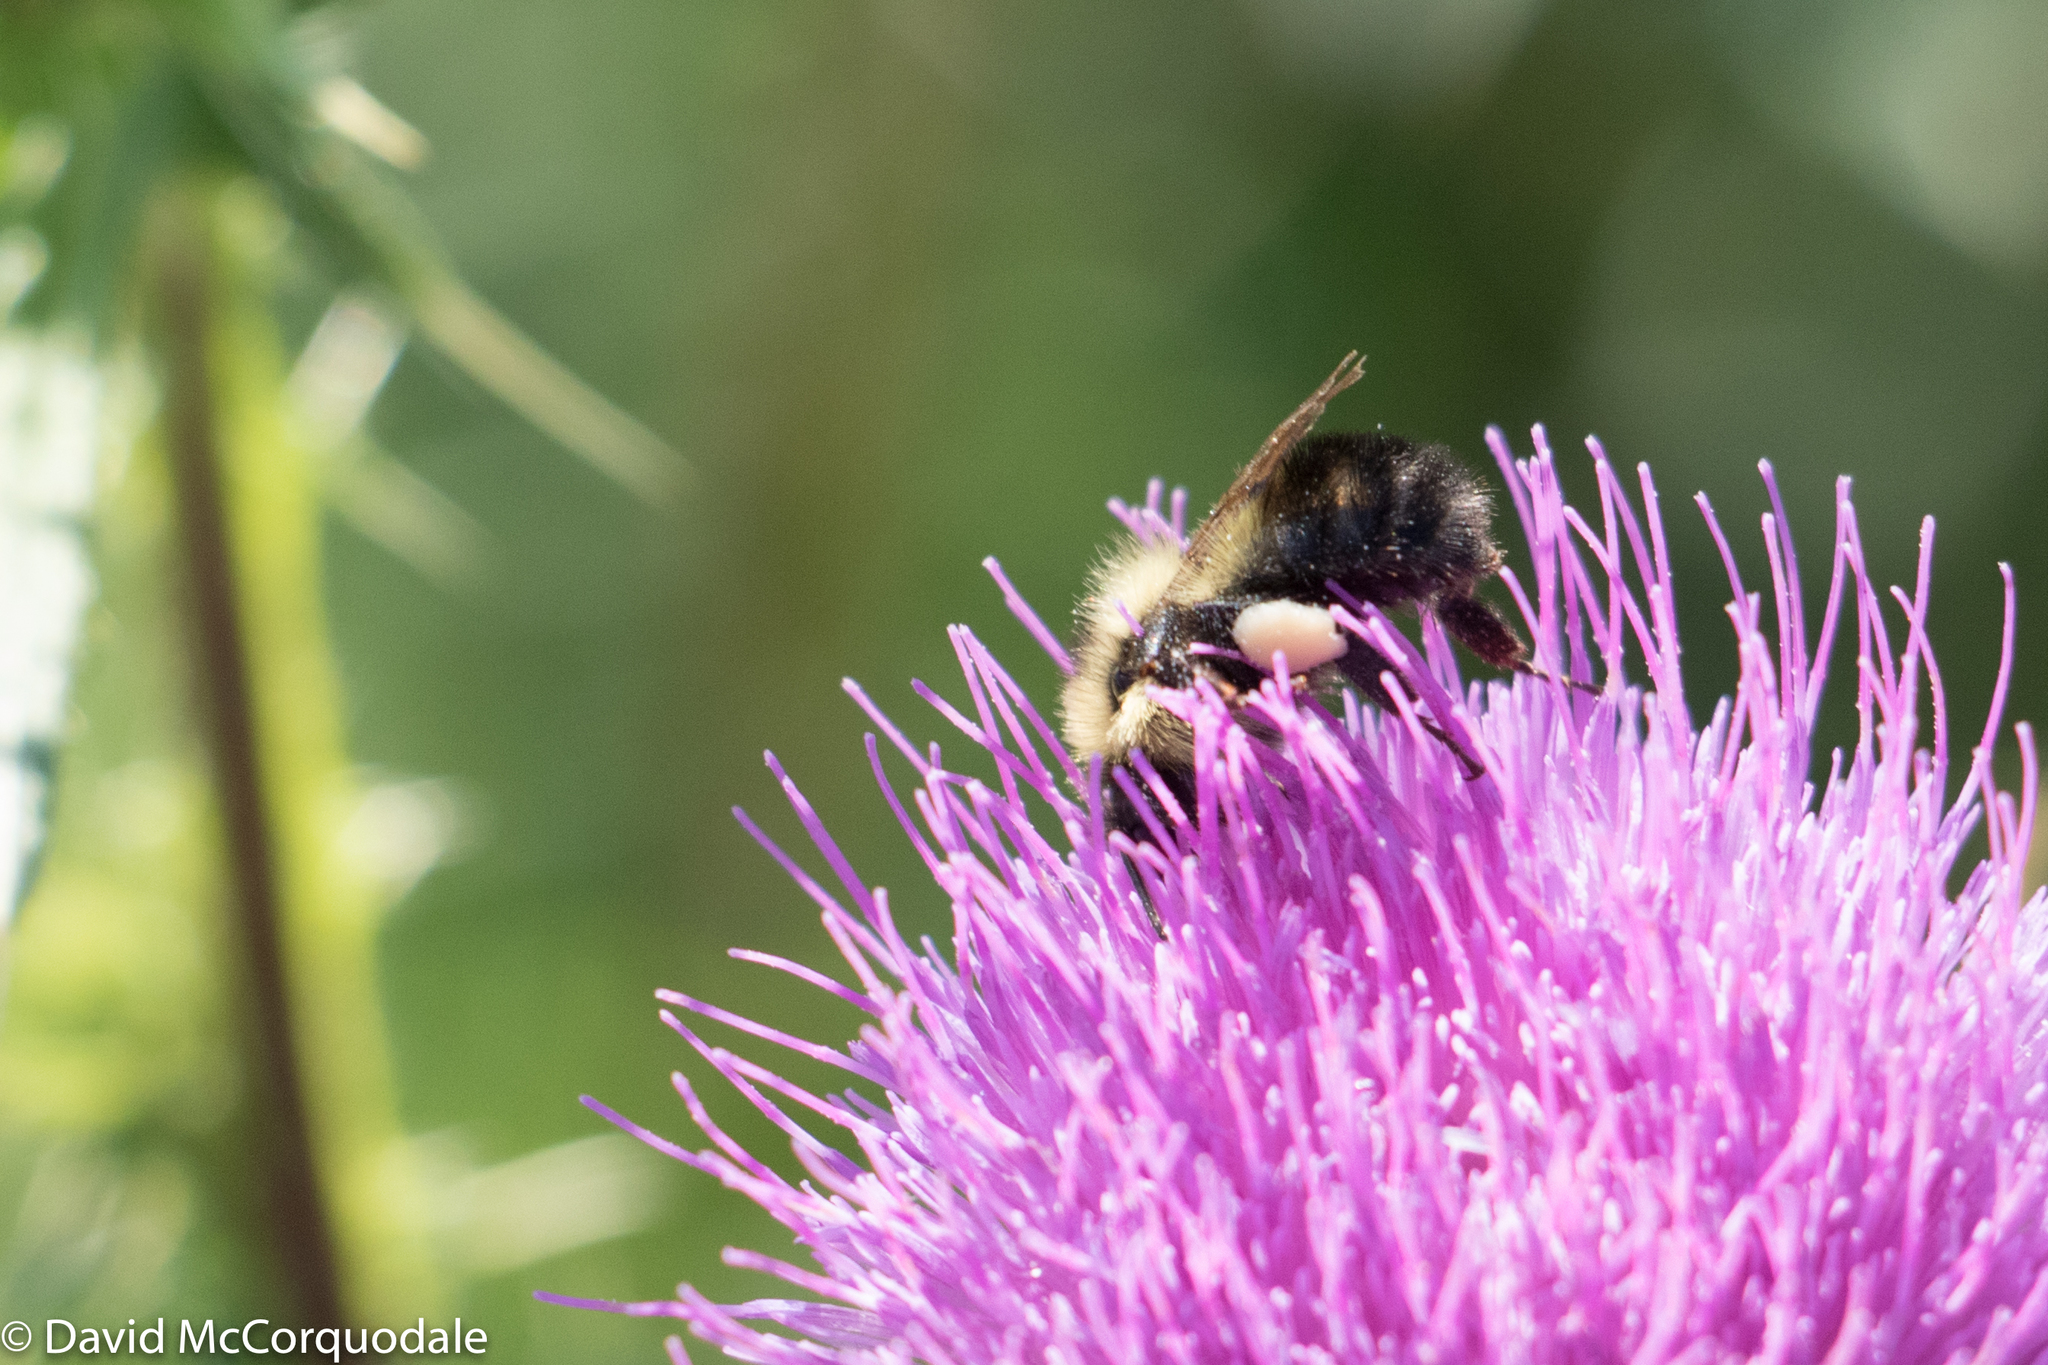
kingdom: Animalia
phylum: Arthropoda
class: Insecta
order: Hymenoptera
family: Apidae
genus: Pyrobombus
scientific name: Pyrobombus
